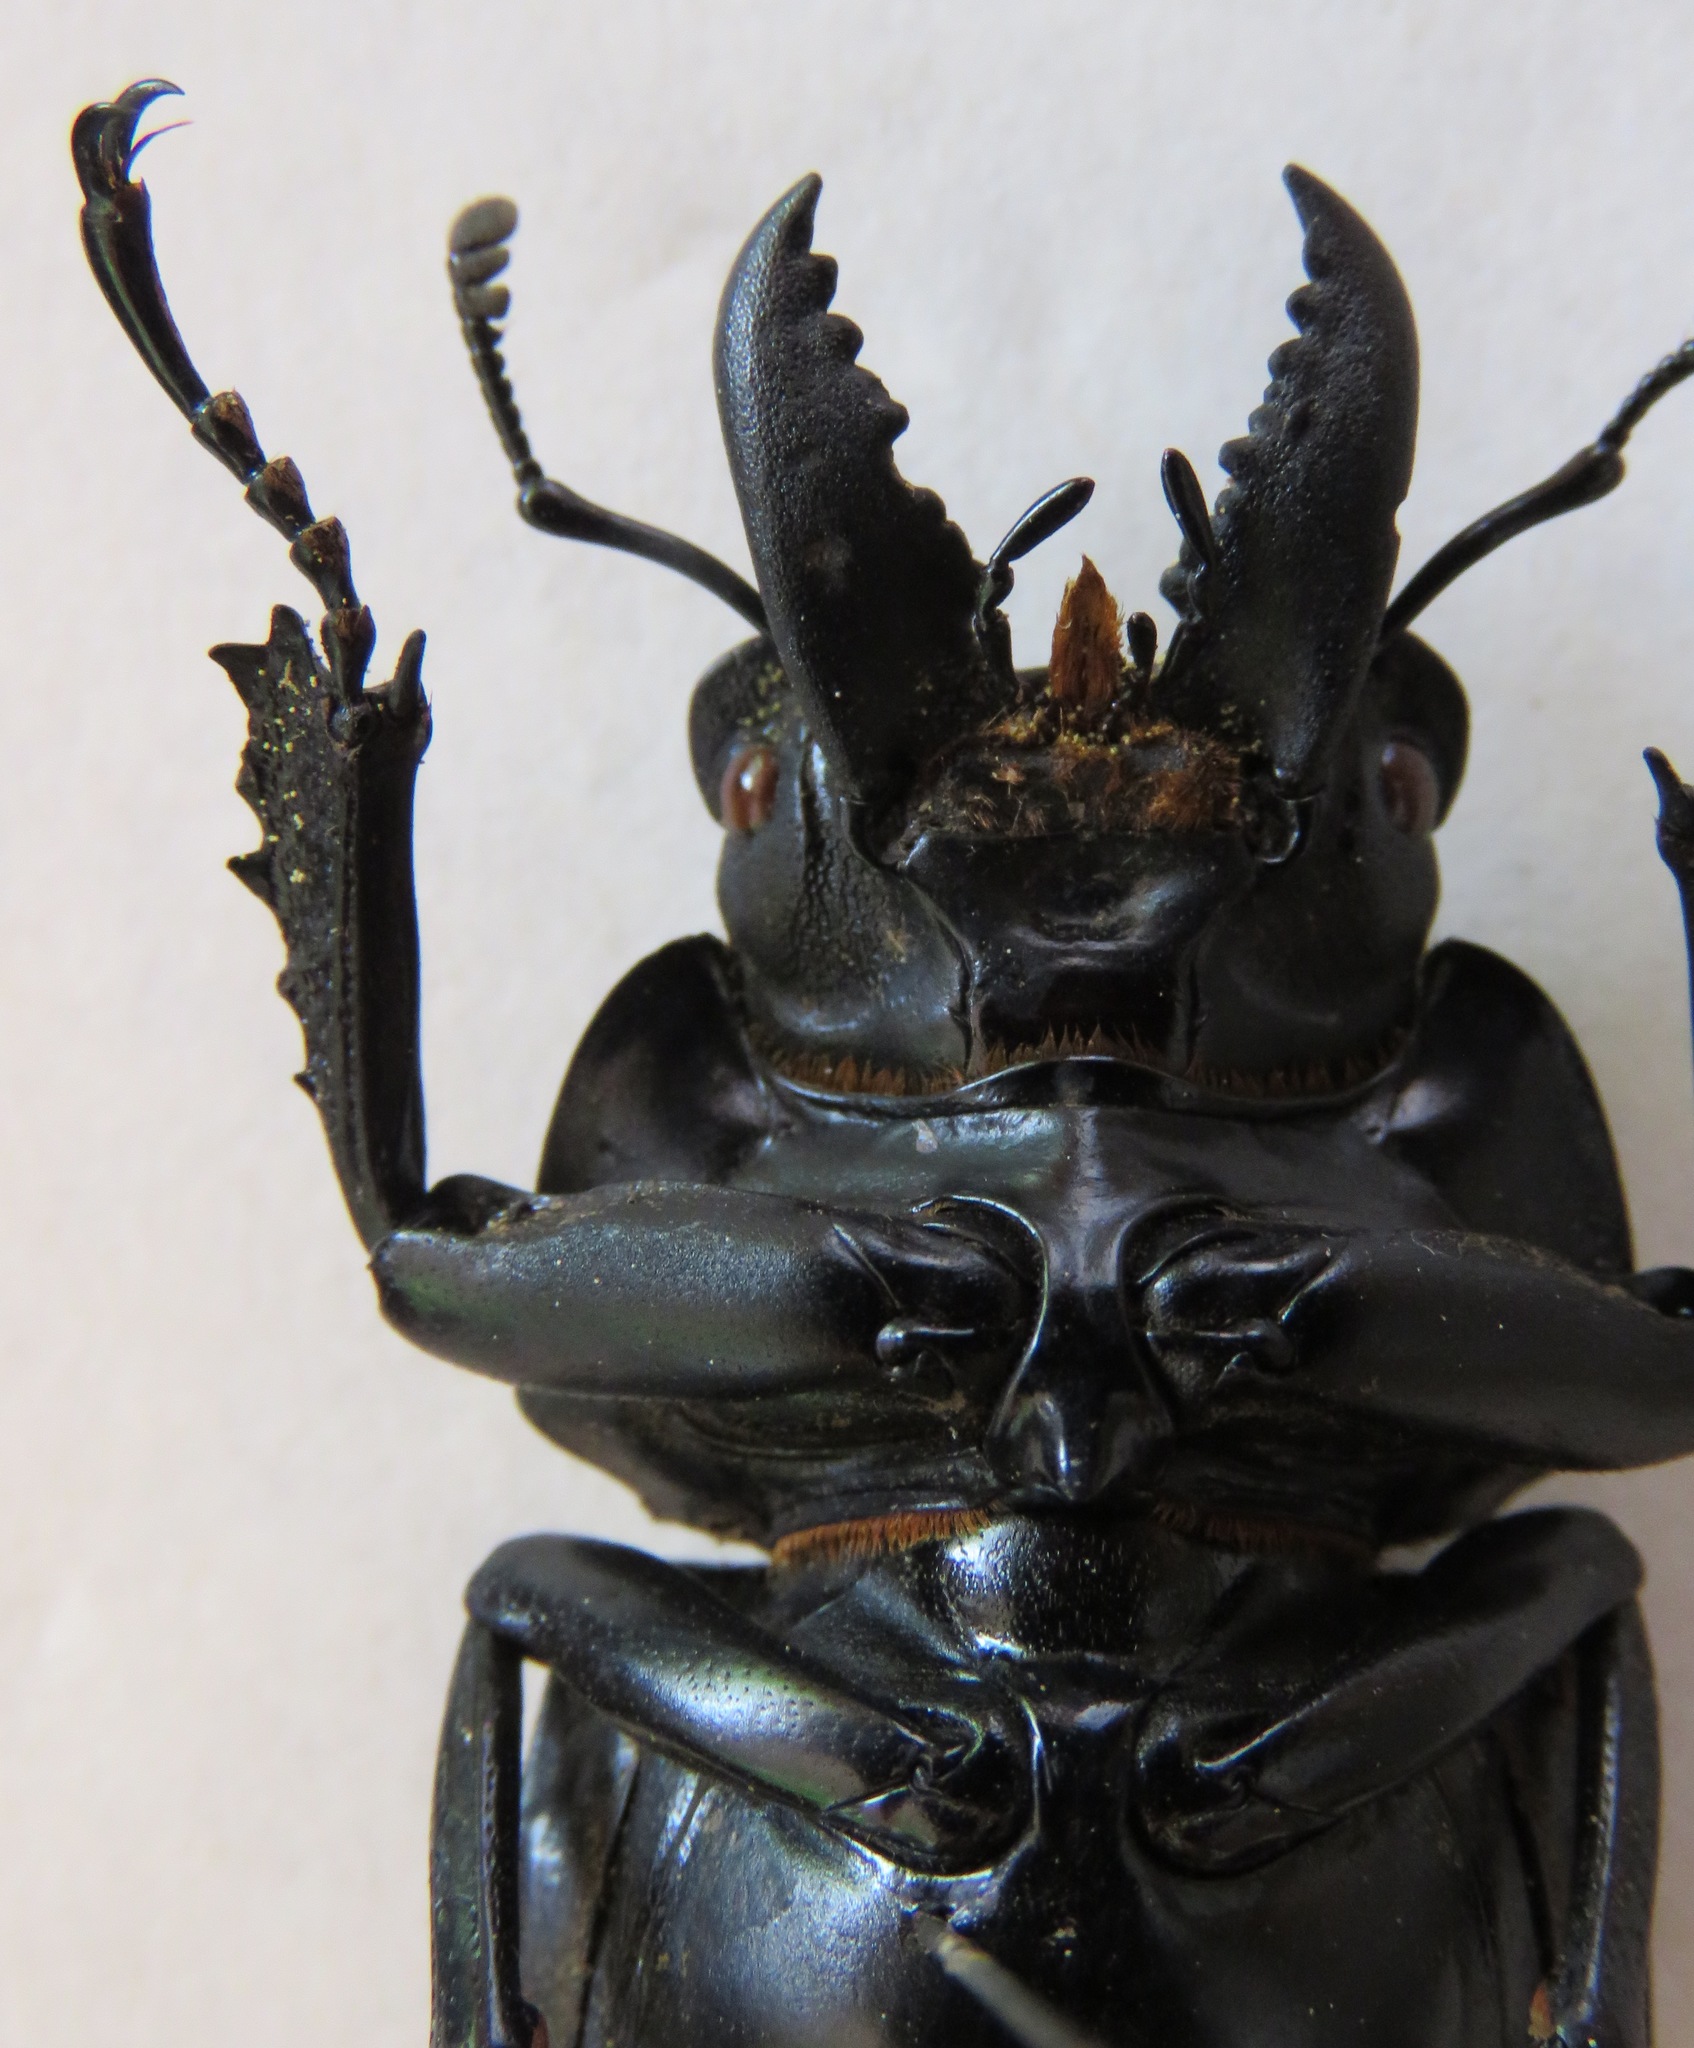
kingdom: Animalia
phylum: Arthropoda
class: Insecta
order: Coleoptera
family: Lucanidae
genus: Neolucanus
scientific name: Neolucanus fiedleri
